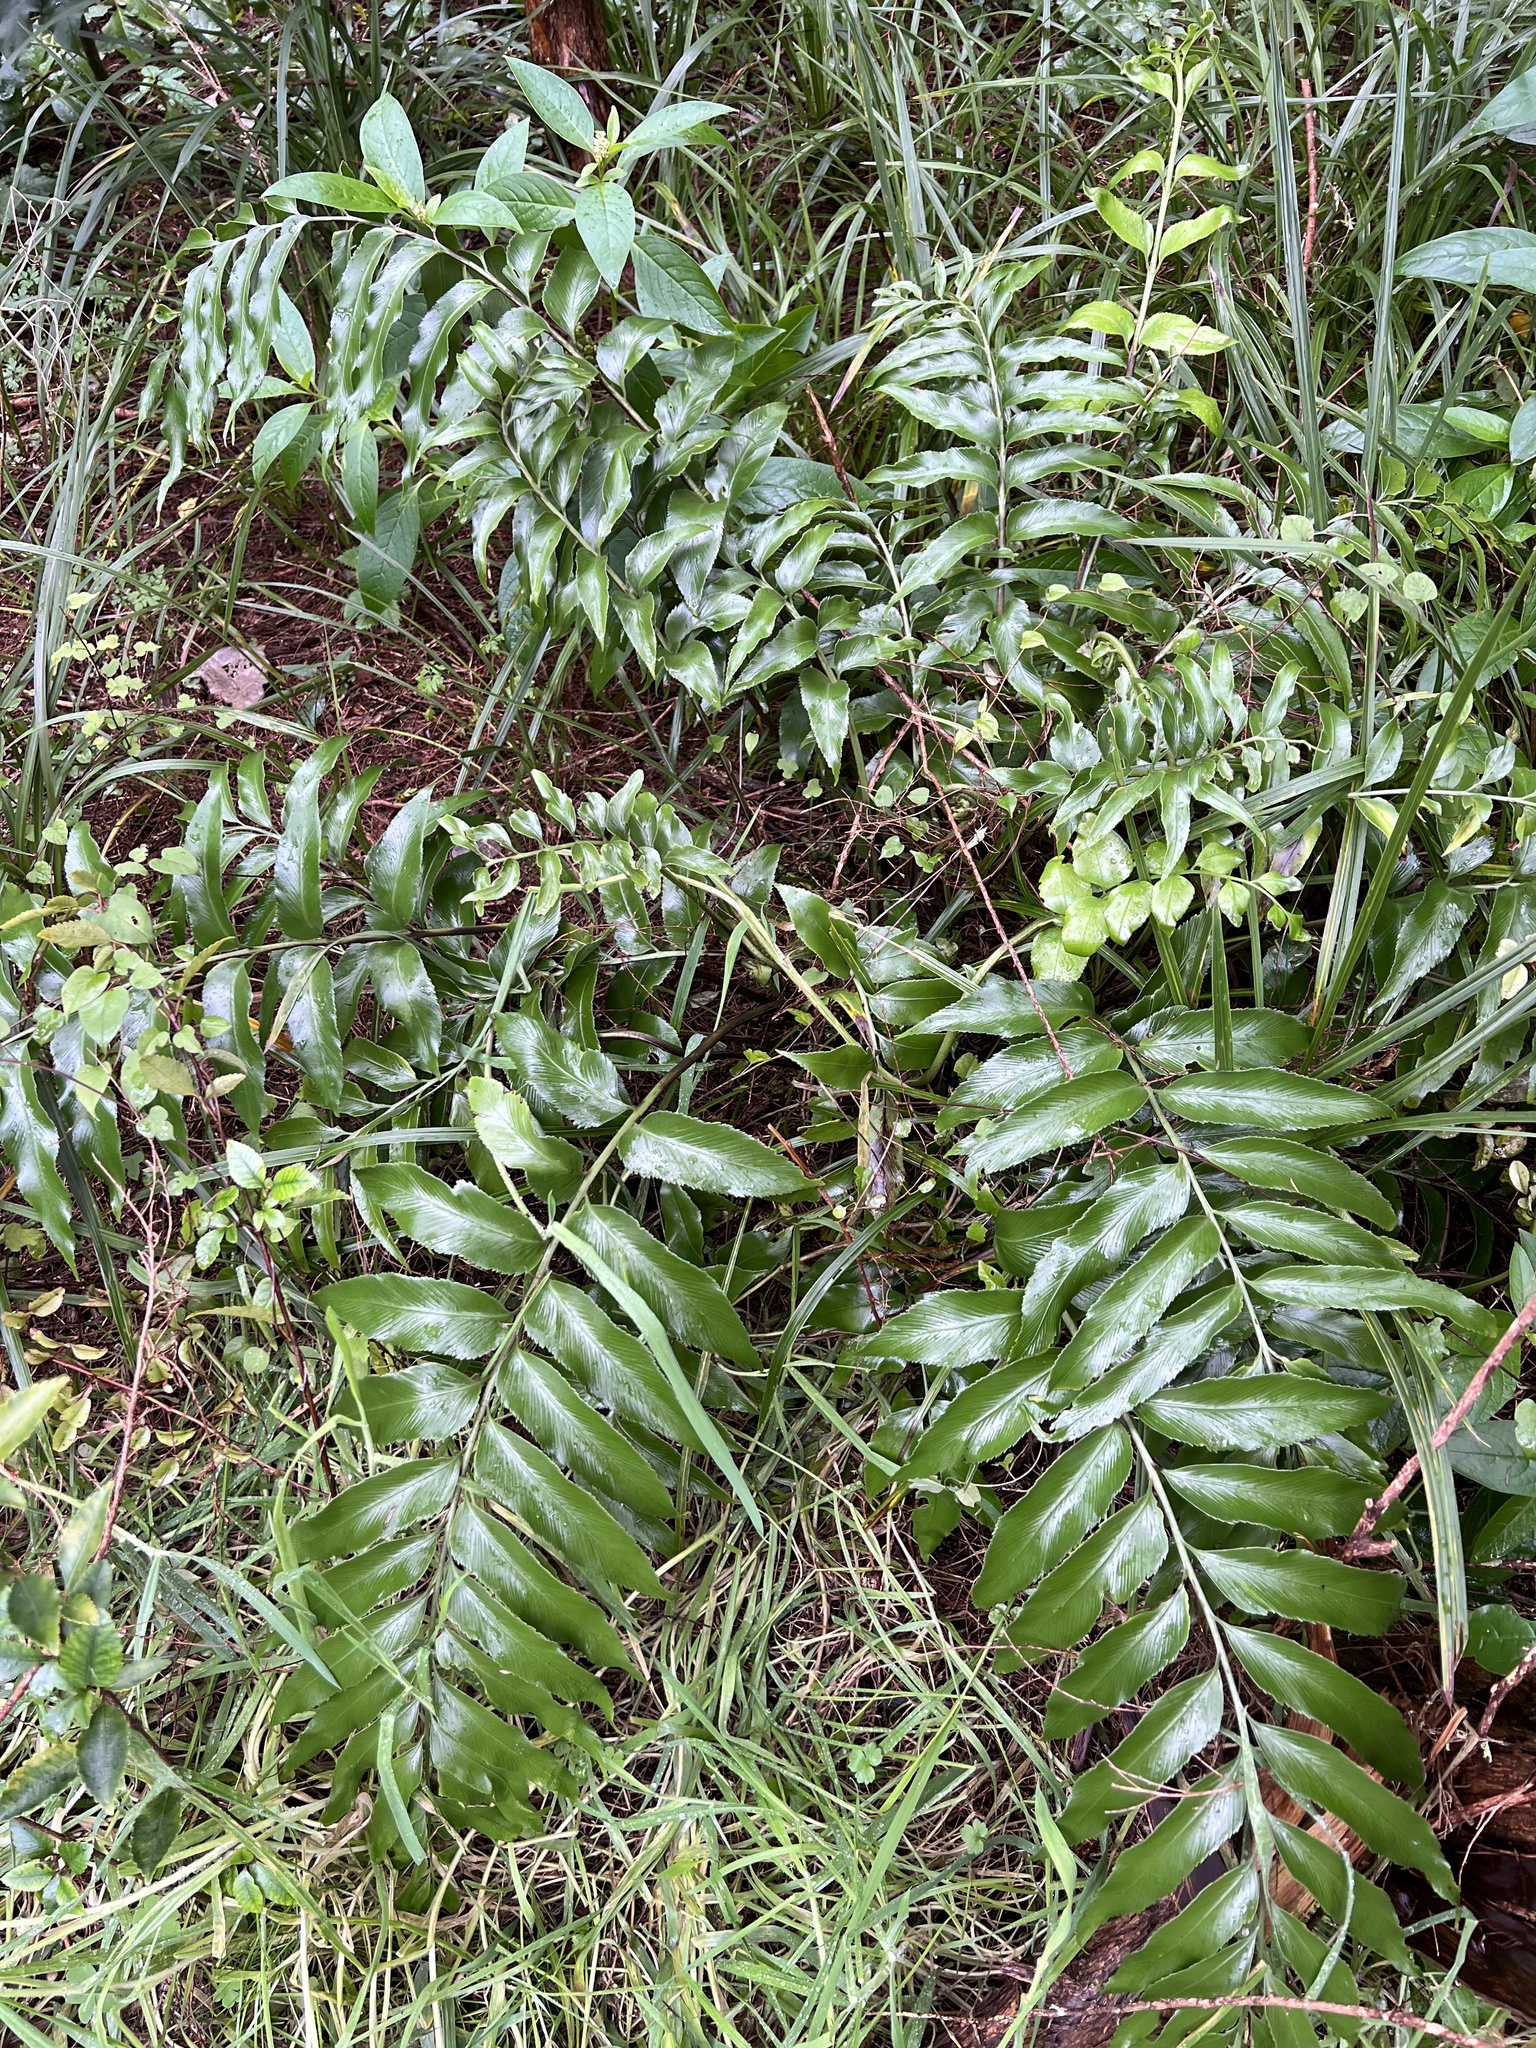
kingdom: Plantae
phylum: Tracheophyta
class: Polypodiopsida
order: Polypodiales
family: Aspleniaceae
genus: Asplenium
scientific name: Asplenium oblongifolium
